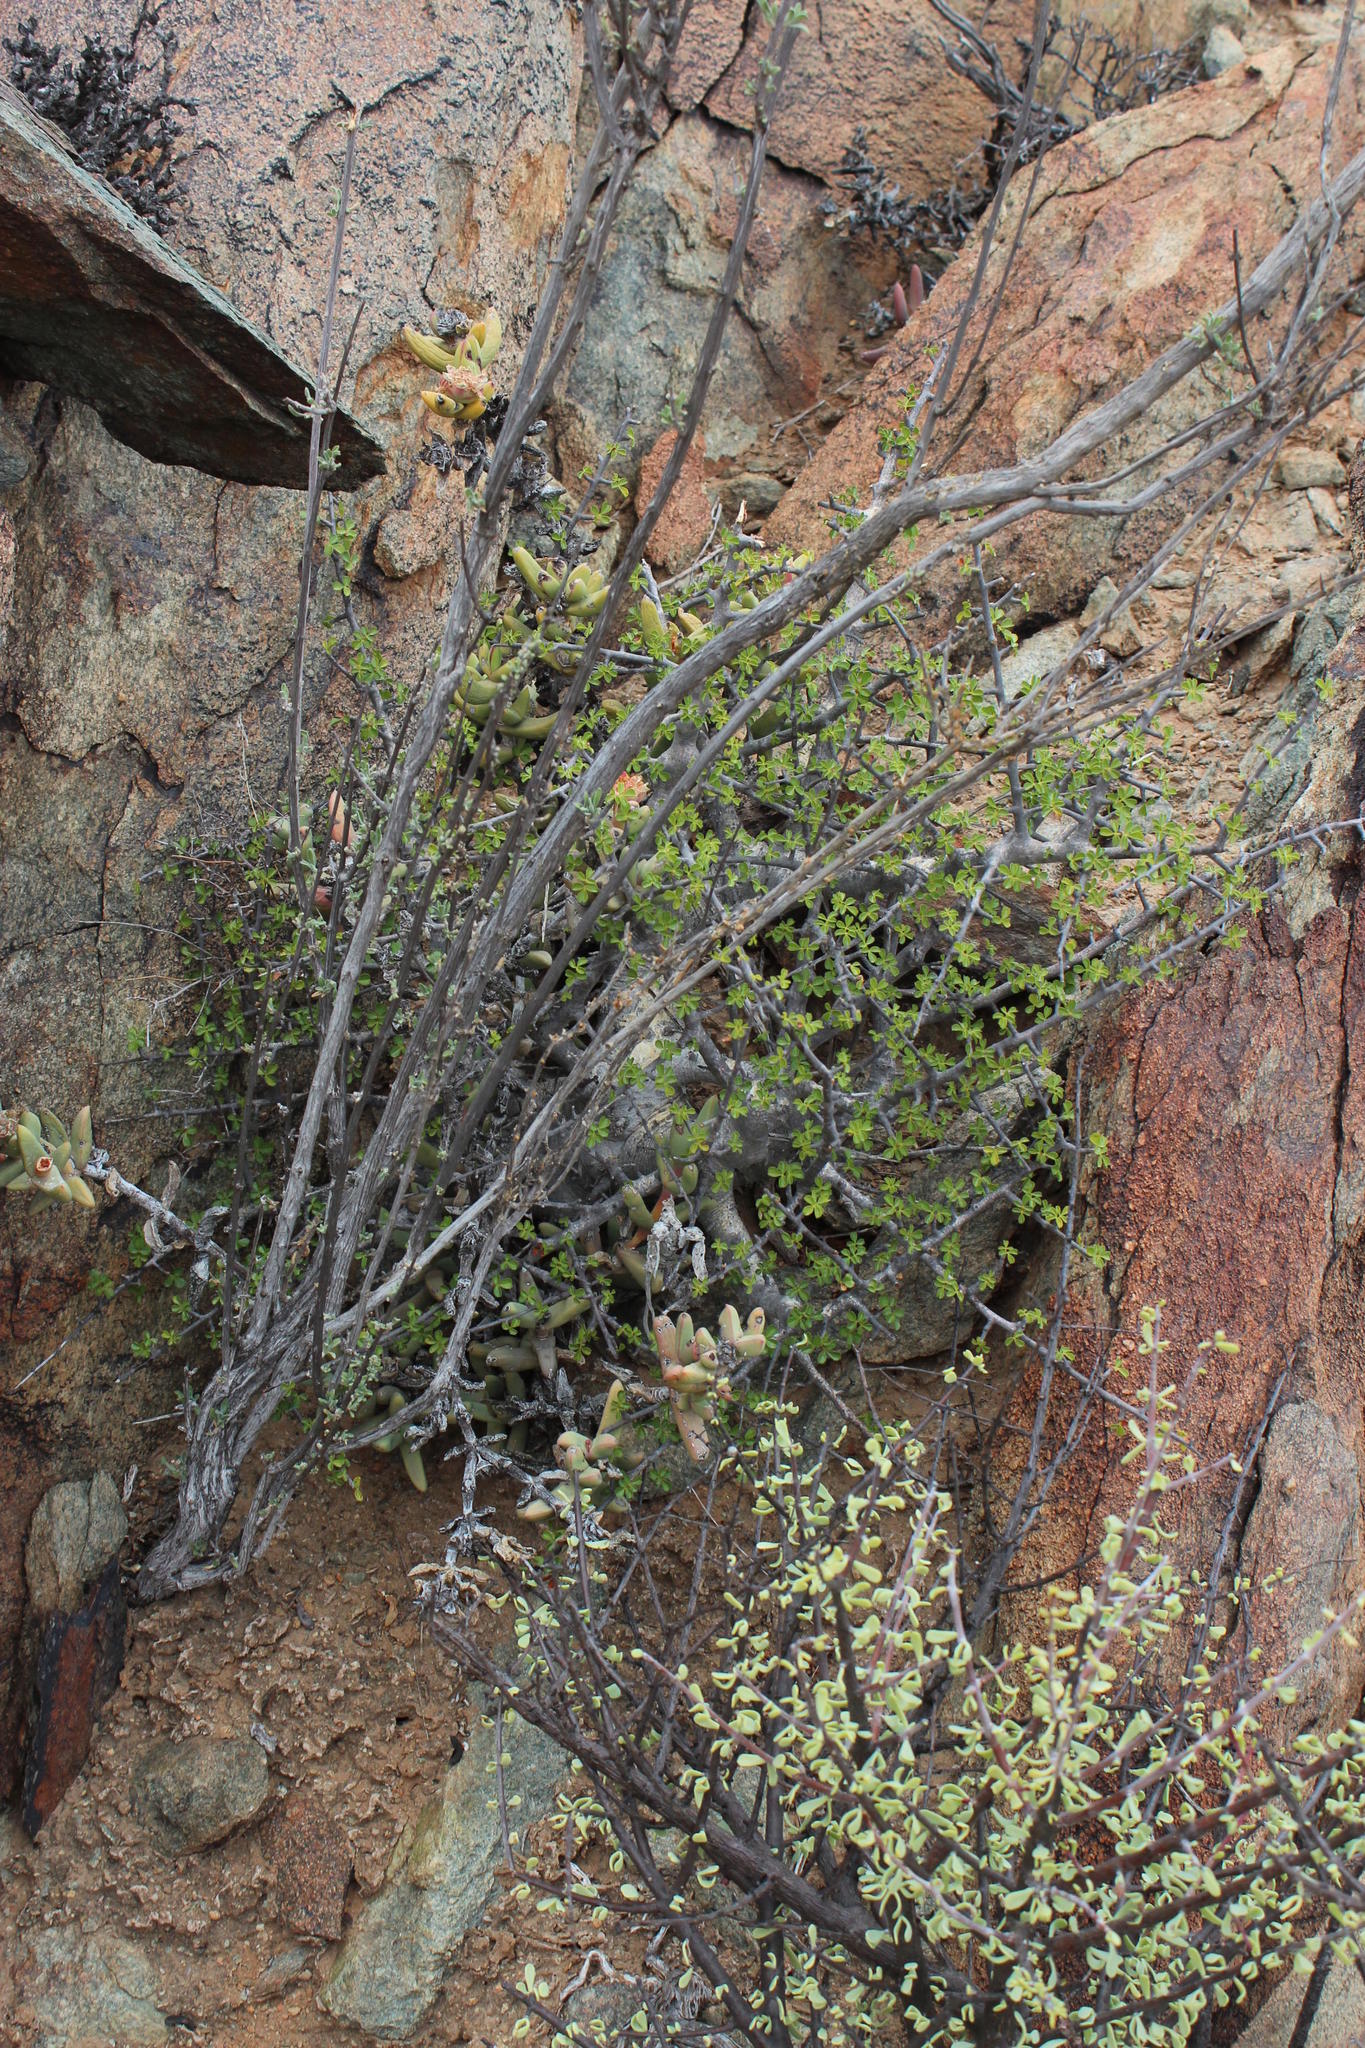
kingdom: Plantae
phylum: Tracheophyta
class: Magnoliopsida
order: Sapindales
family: Burseraceae
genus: Commiphora
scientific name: Commiphora capensis
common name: Namaqua commiphora
